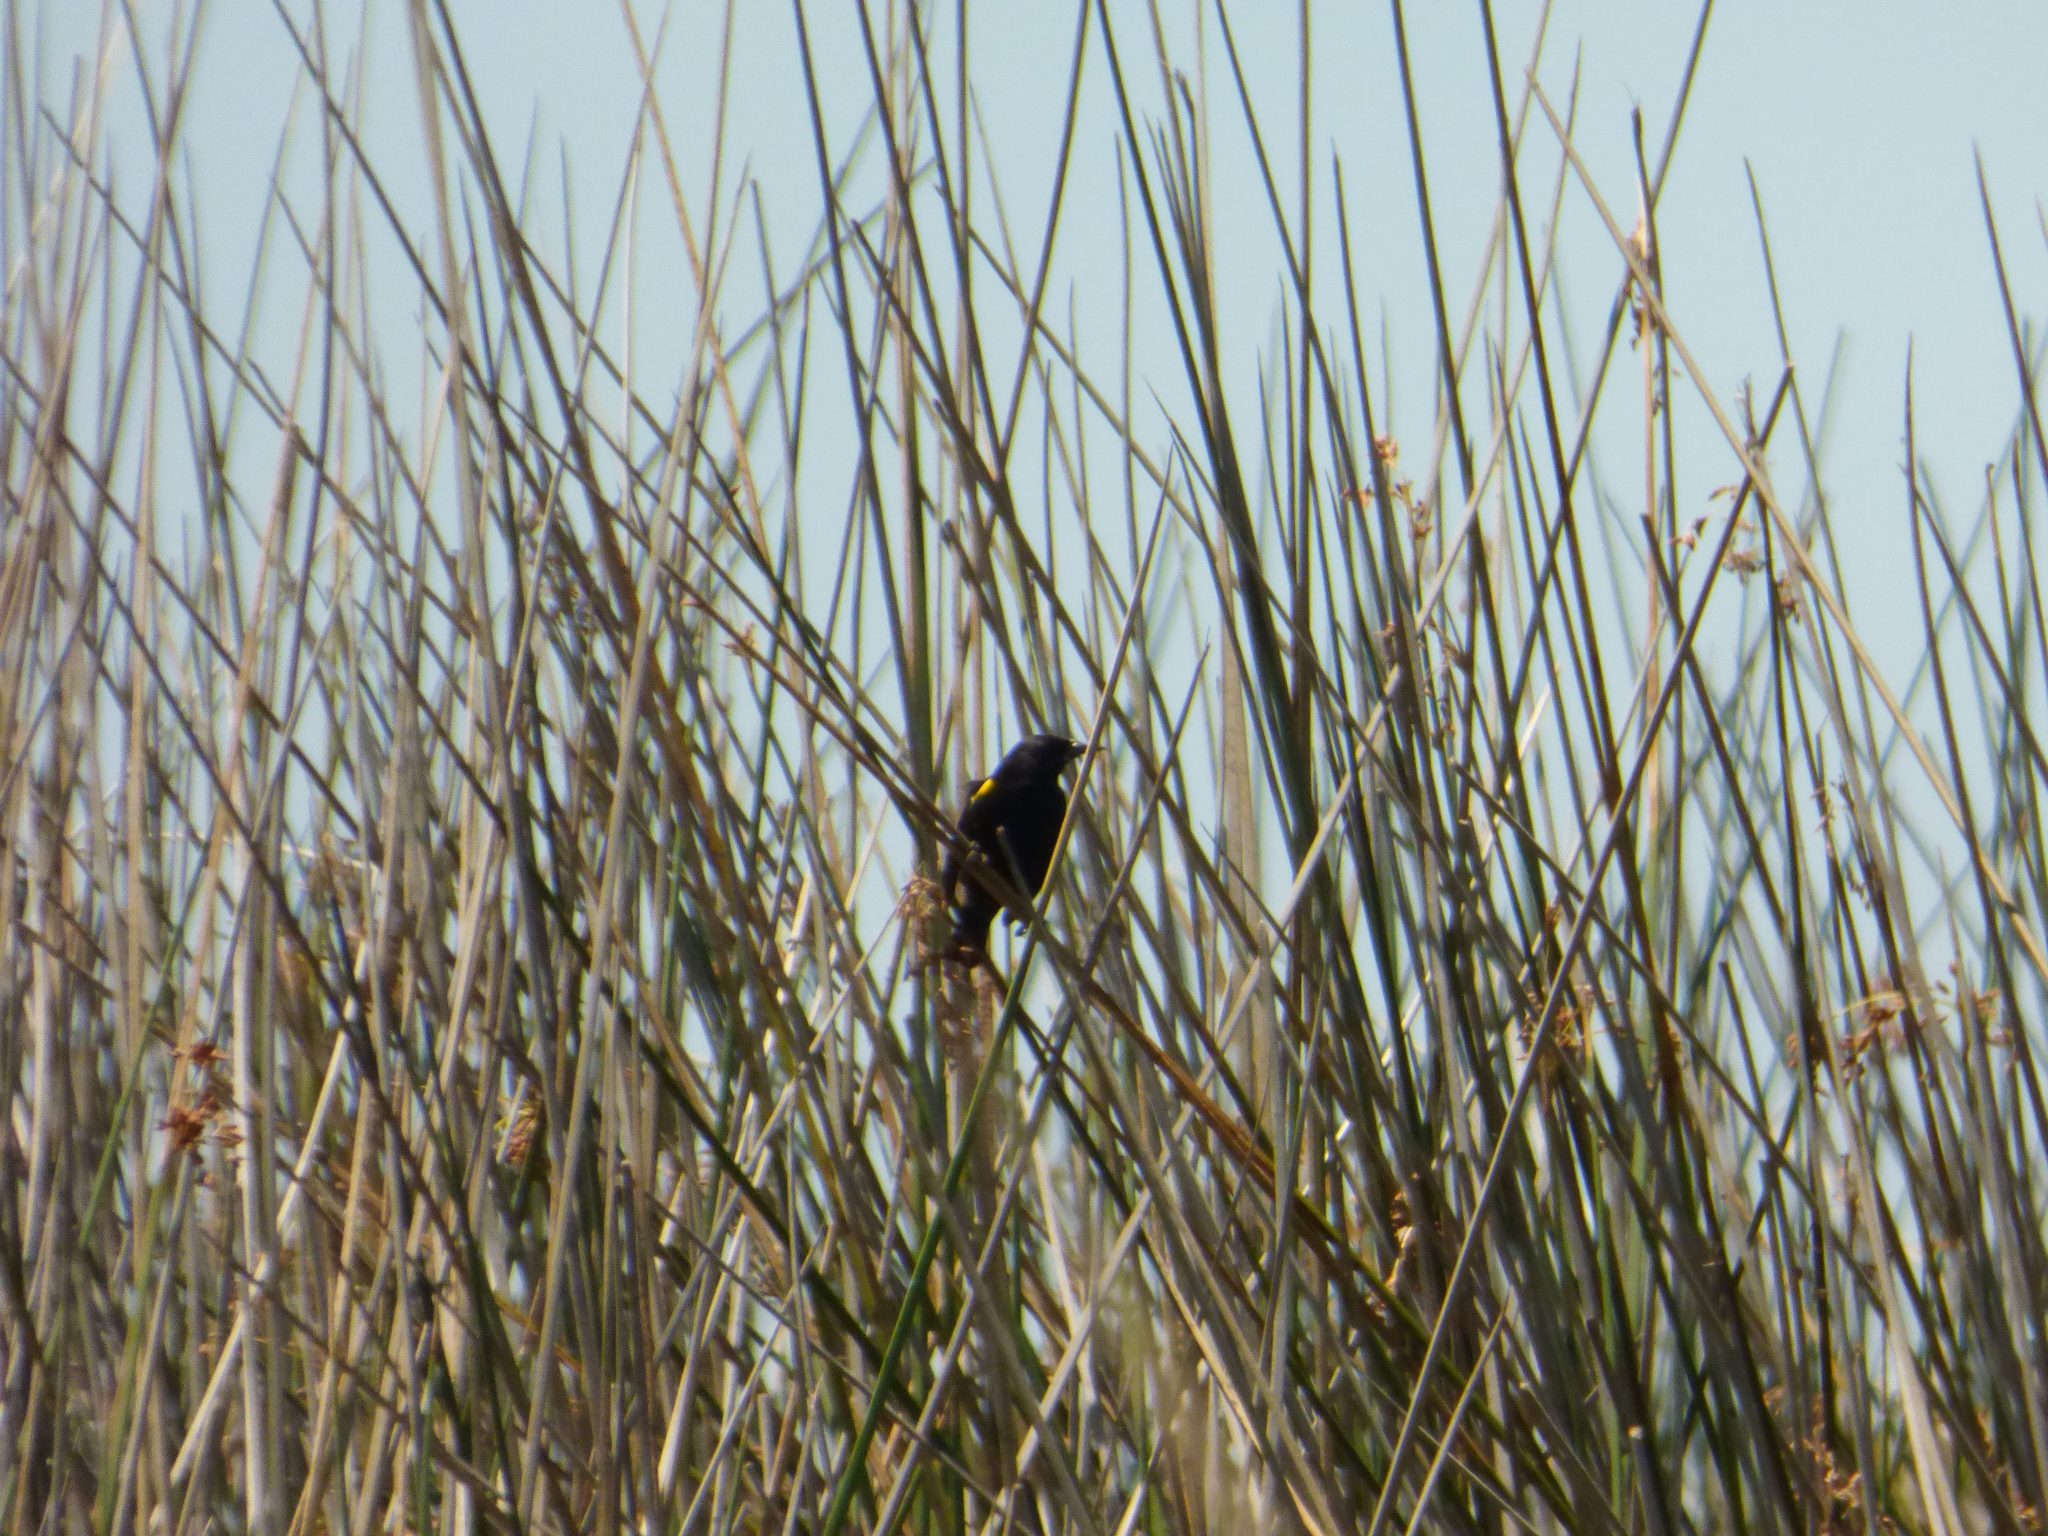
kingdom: Animalia
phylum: Chordata
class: Aves
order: Passeriformes
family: Icteridae
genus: Agelasticus
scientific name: Agelasticus thilius
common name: Yellow-winged blackbird
